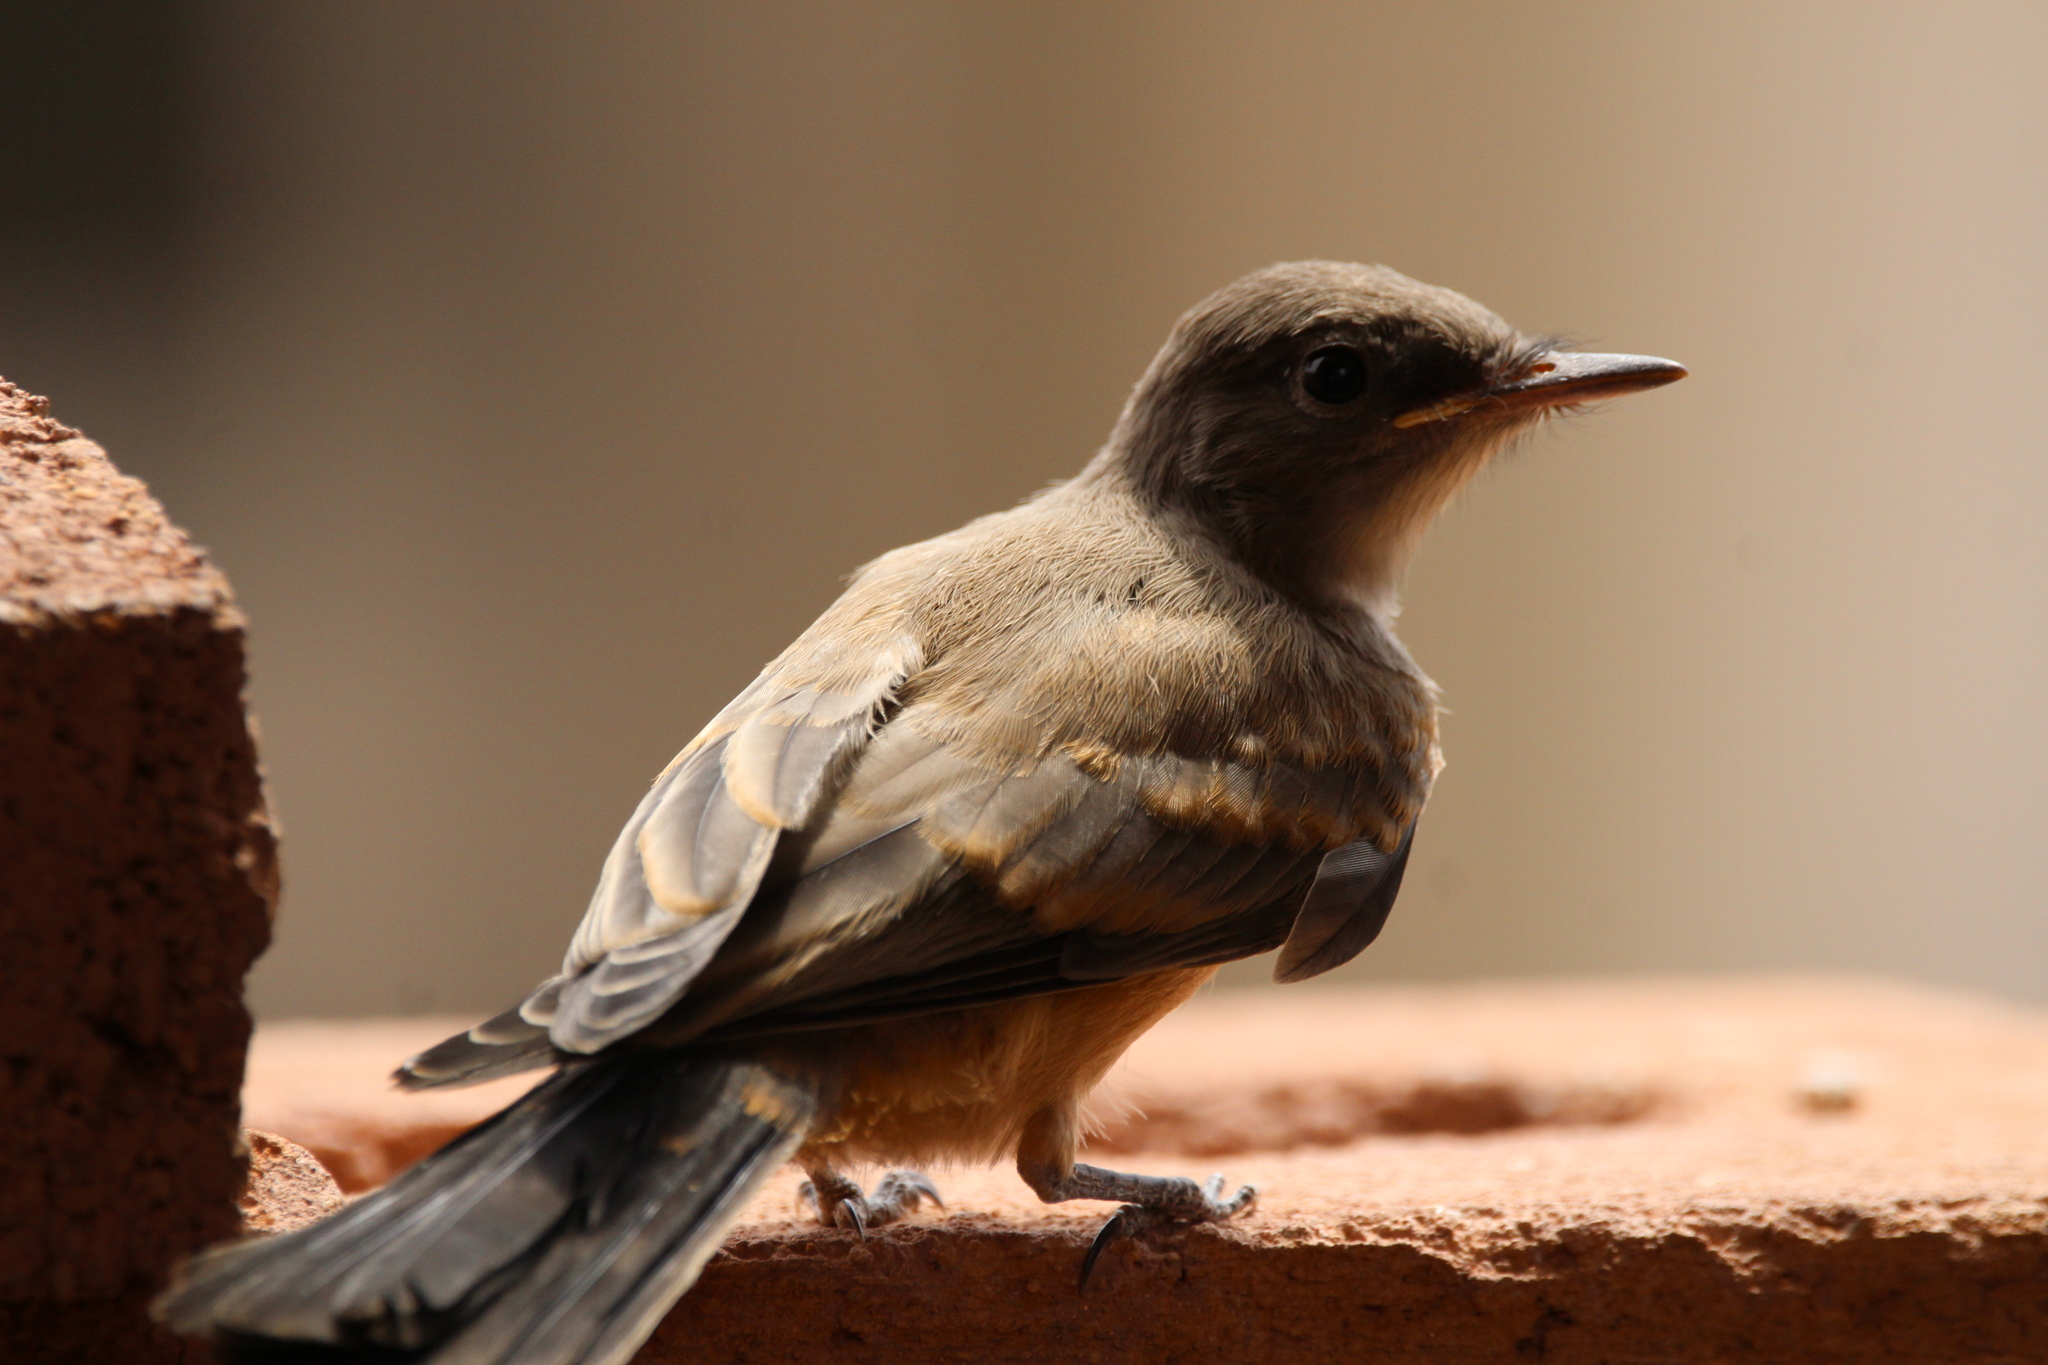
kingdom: Animalia
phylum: Chordata
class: Aves
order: Passeriformes
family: Tyrannidae
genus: Sayornis
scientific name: Sayornis saya
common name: Say's phoebe
